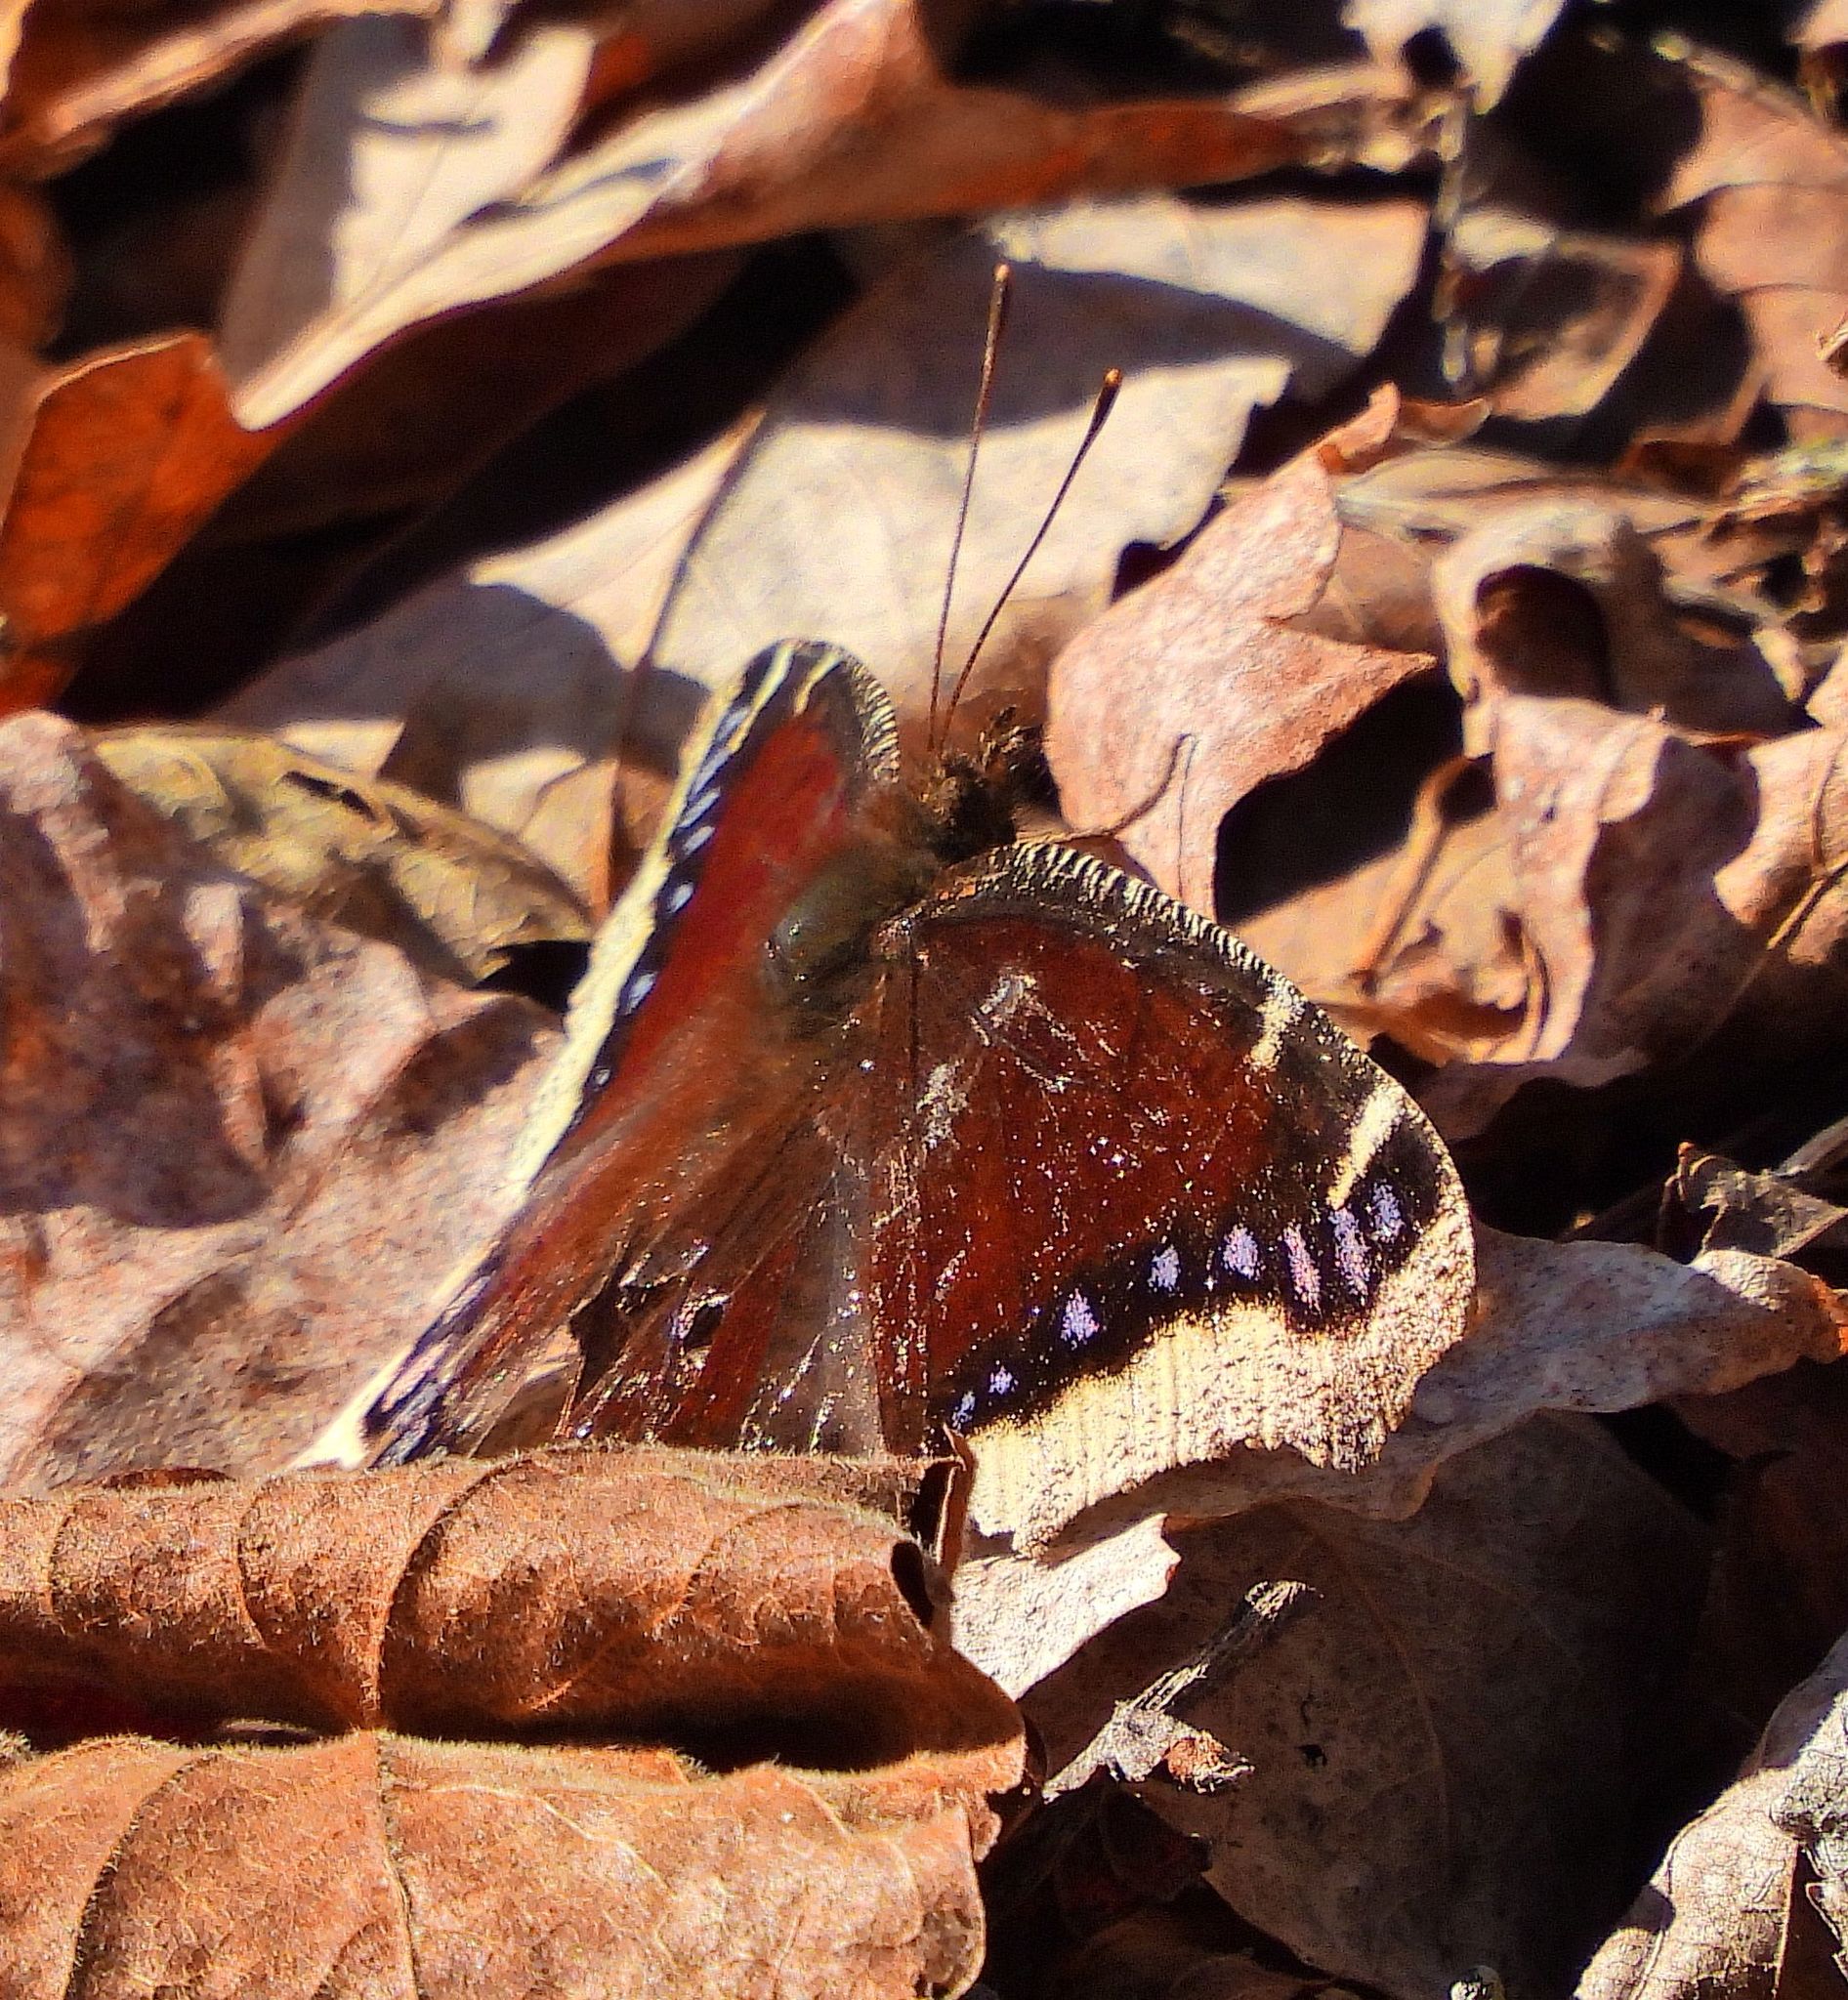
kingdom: Animalia
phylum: Arthropoda
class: Insecta
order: Lepidoptera
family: Nymphalidae
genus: Nymphalis
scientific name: Nymphalis antiopa
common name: Camberwell beauty
